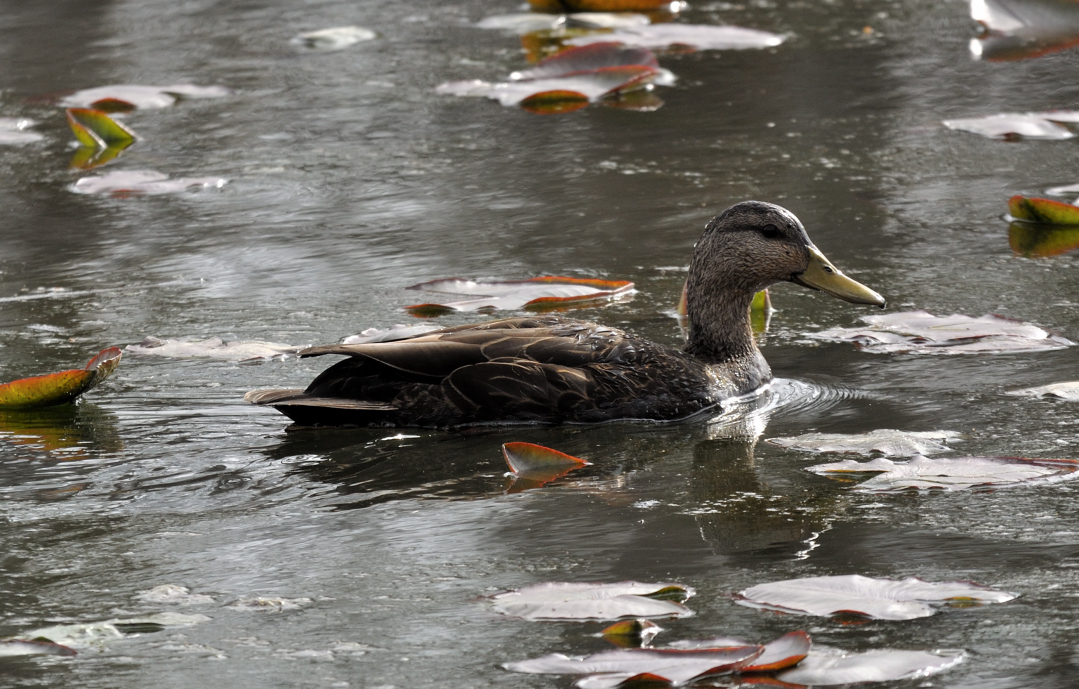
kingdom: Animalia
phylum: Chordata
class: Aves
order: Anseriformes
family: Anatidae
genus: Anas
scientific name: Anas rubripes
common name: American black duck
